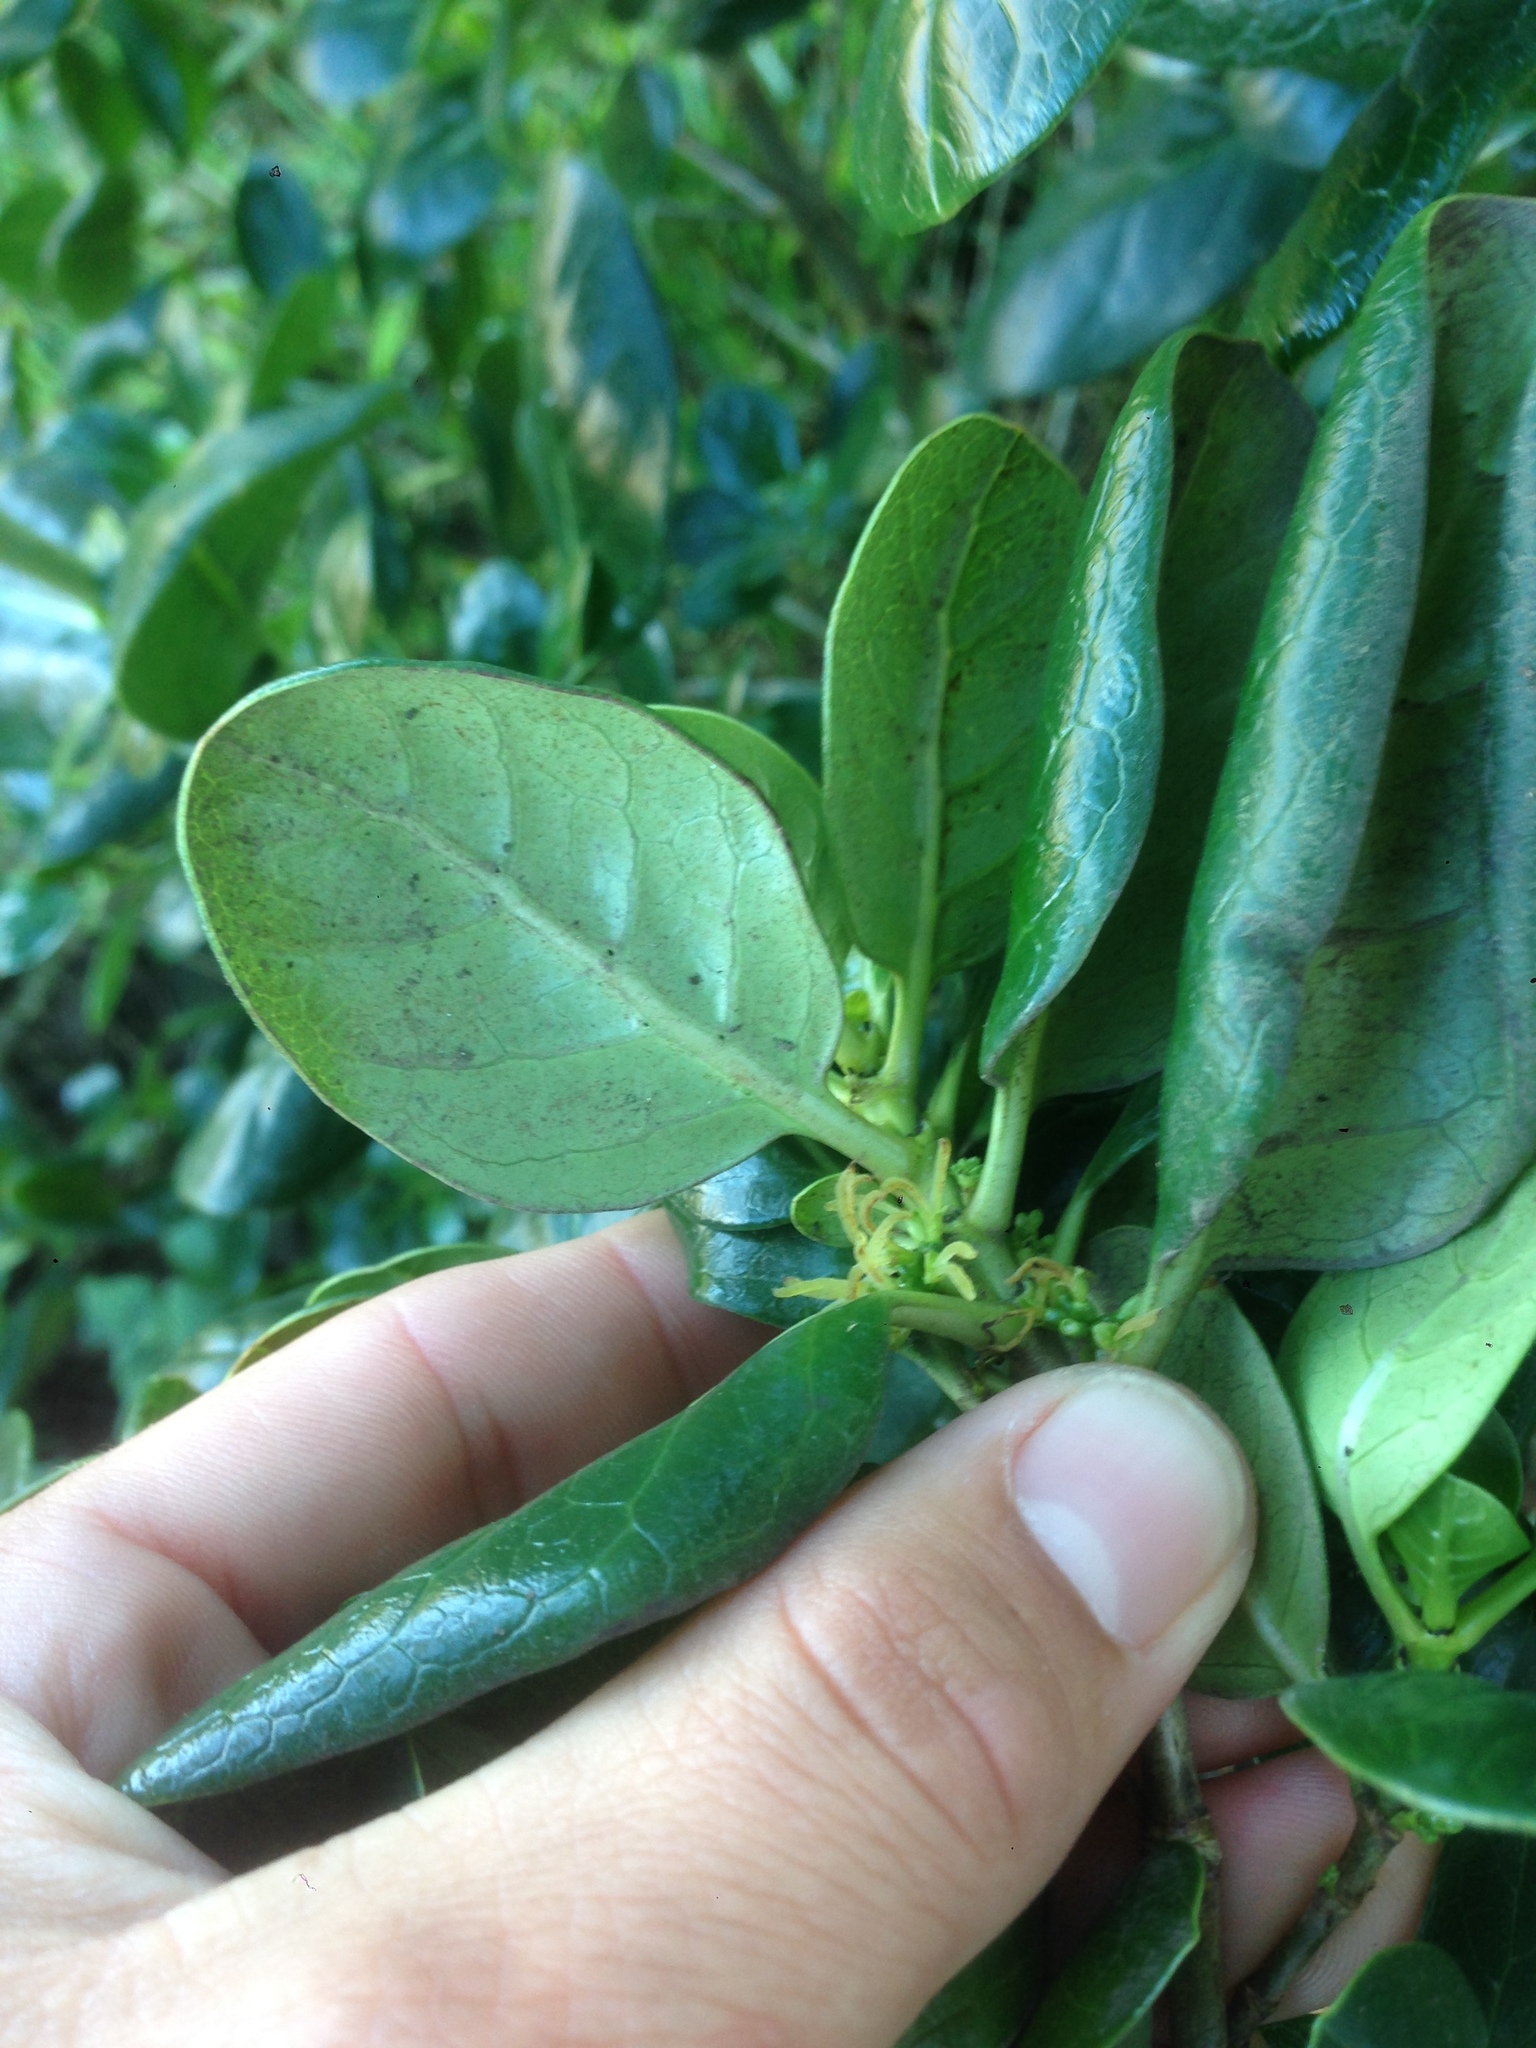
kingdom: Plantae
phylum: Tracheophyta
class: Magnoliopsida
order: Gentianales
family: Rubiaceae
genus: Coprosma
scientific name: Coprosma repens
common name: Tree bedstraw
